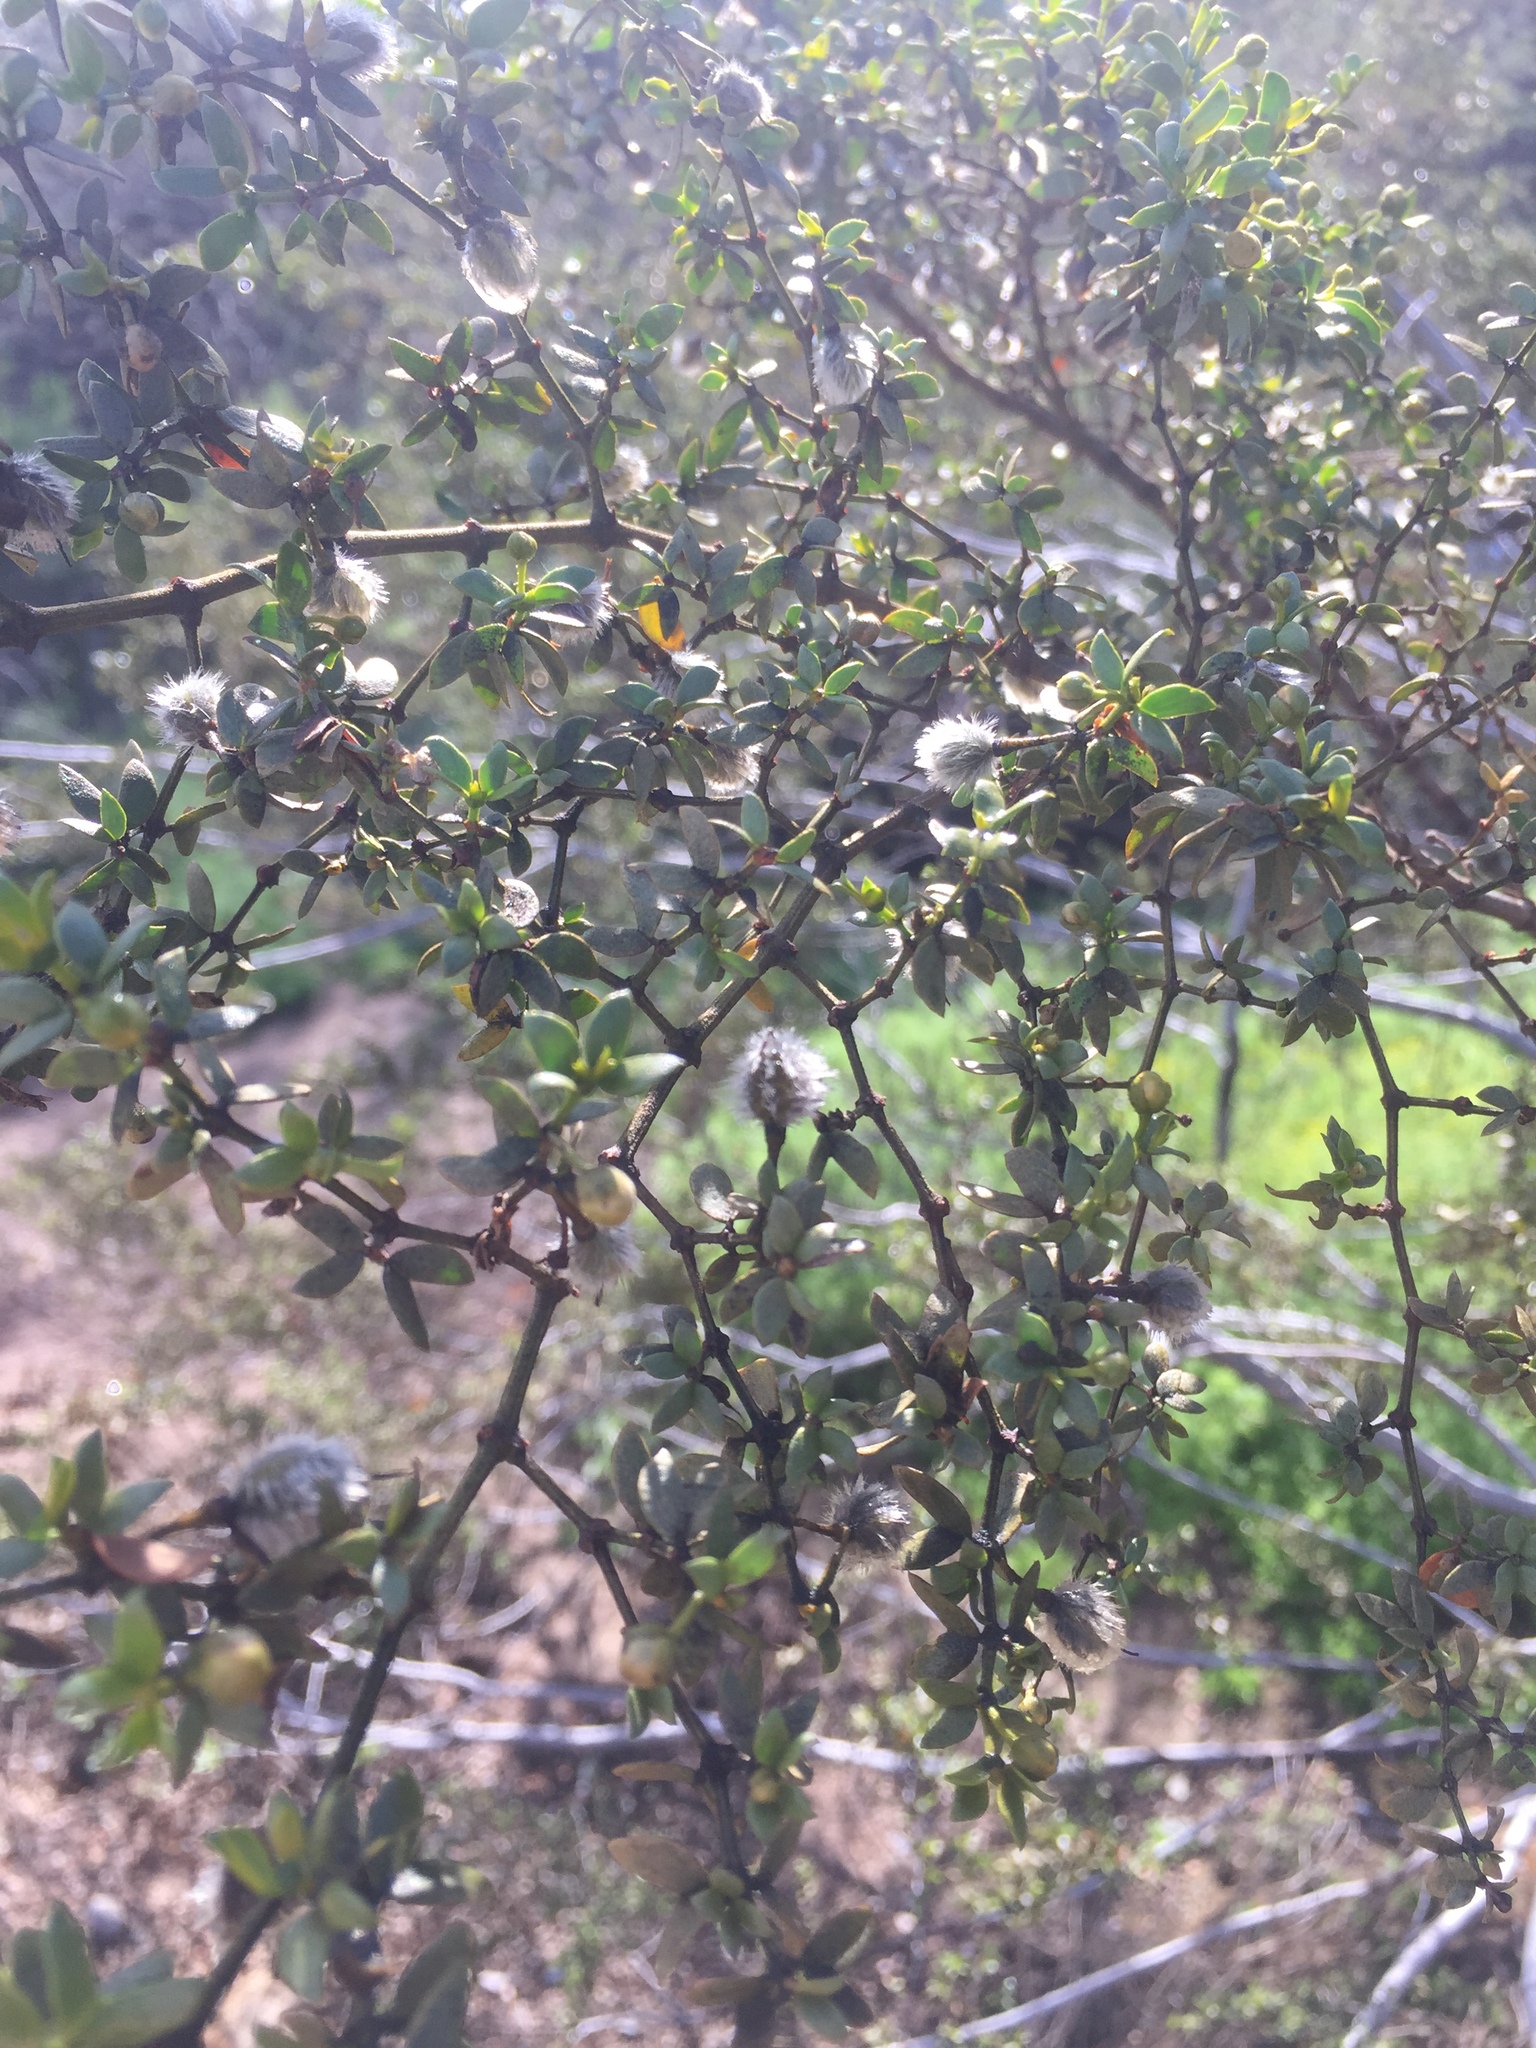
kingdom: Plantae
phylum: Tracheophyta
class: Magnoliopsida
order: Zygophyllales
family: Zygophyllaceae
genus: Larrea
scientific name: Larrea tridentata
